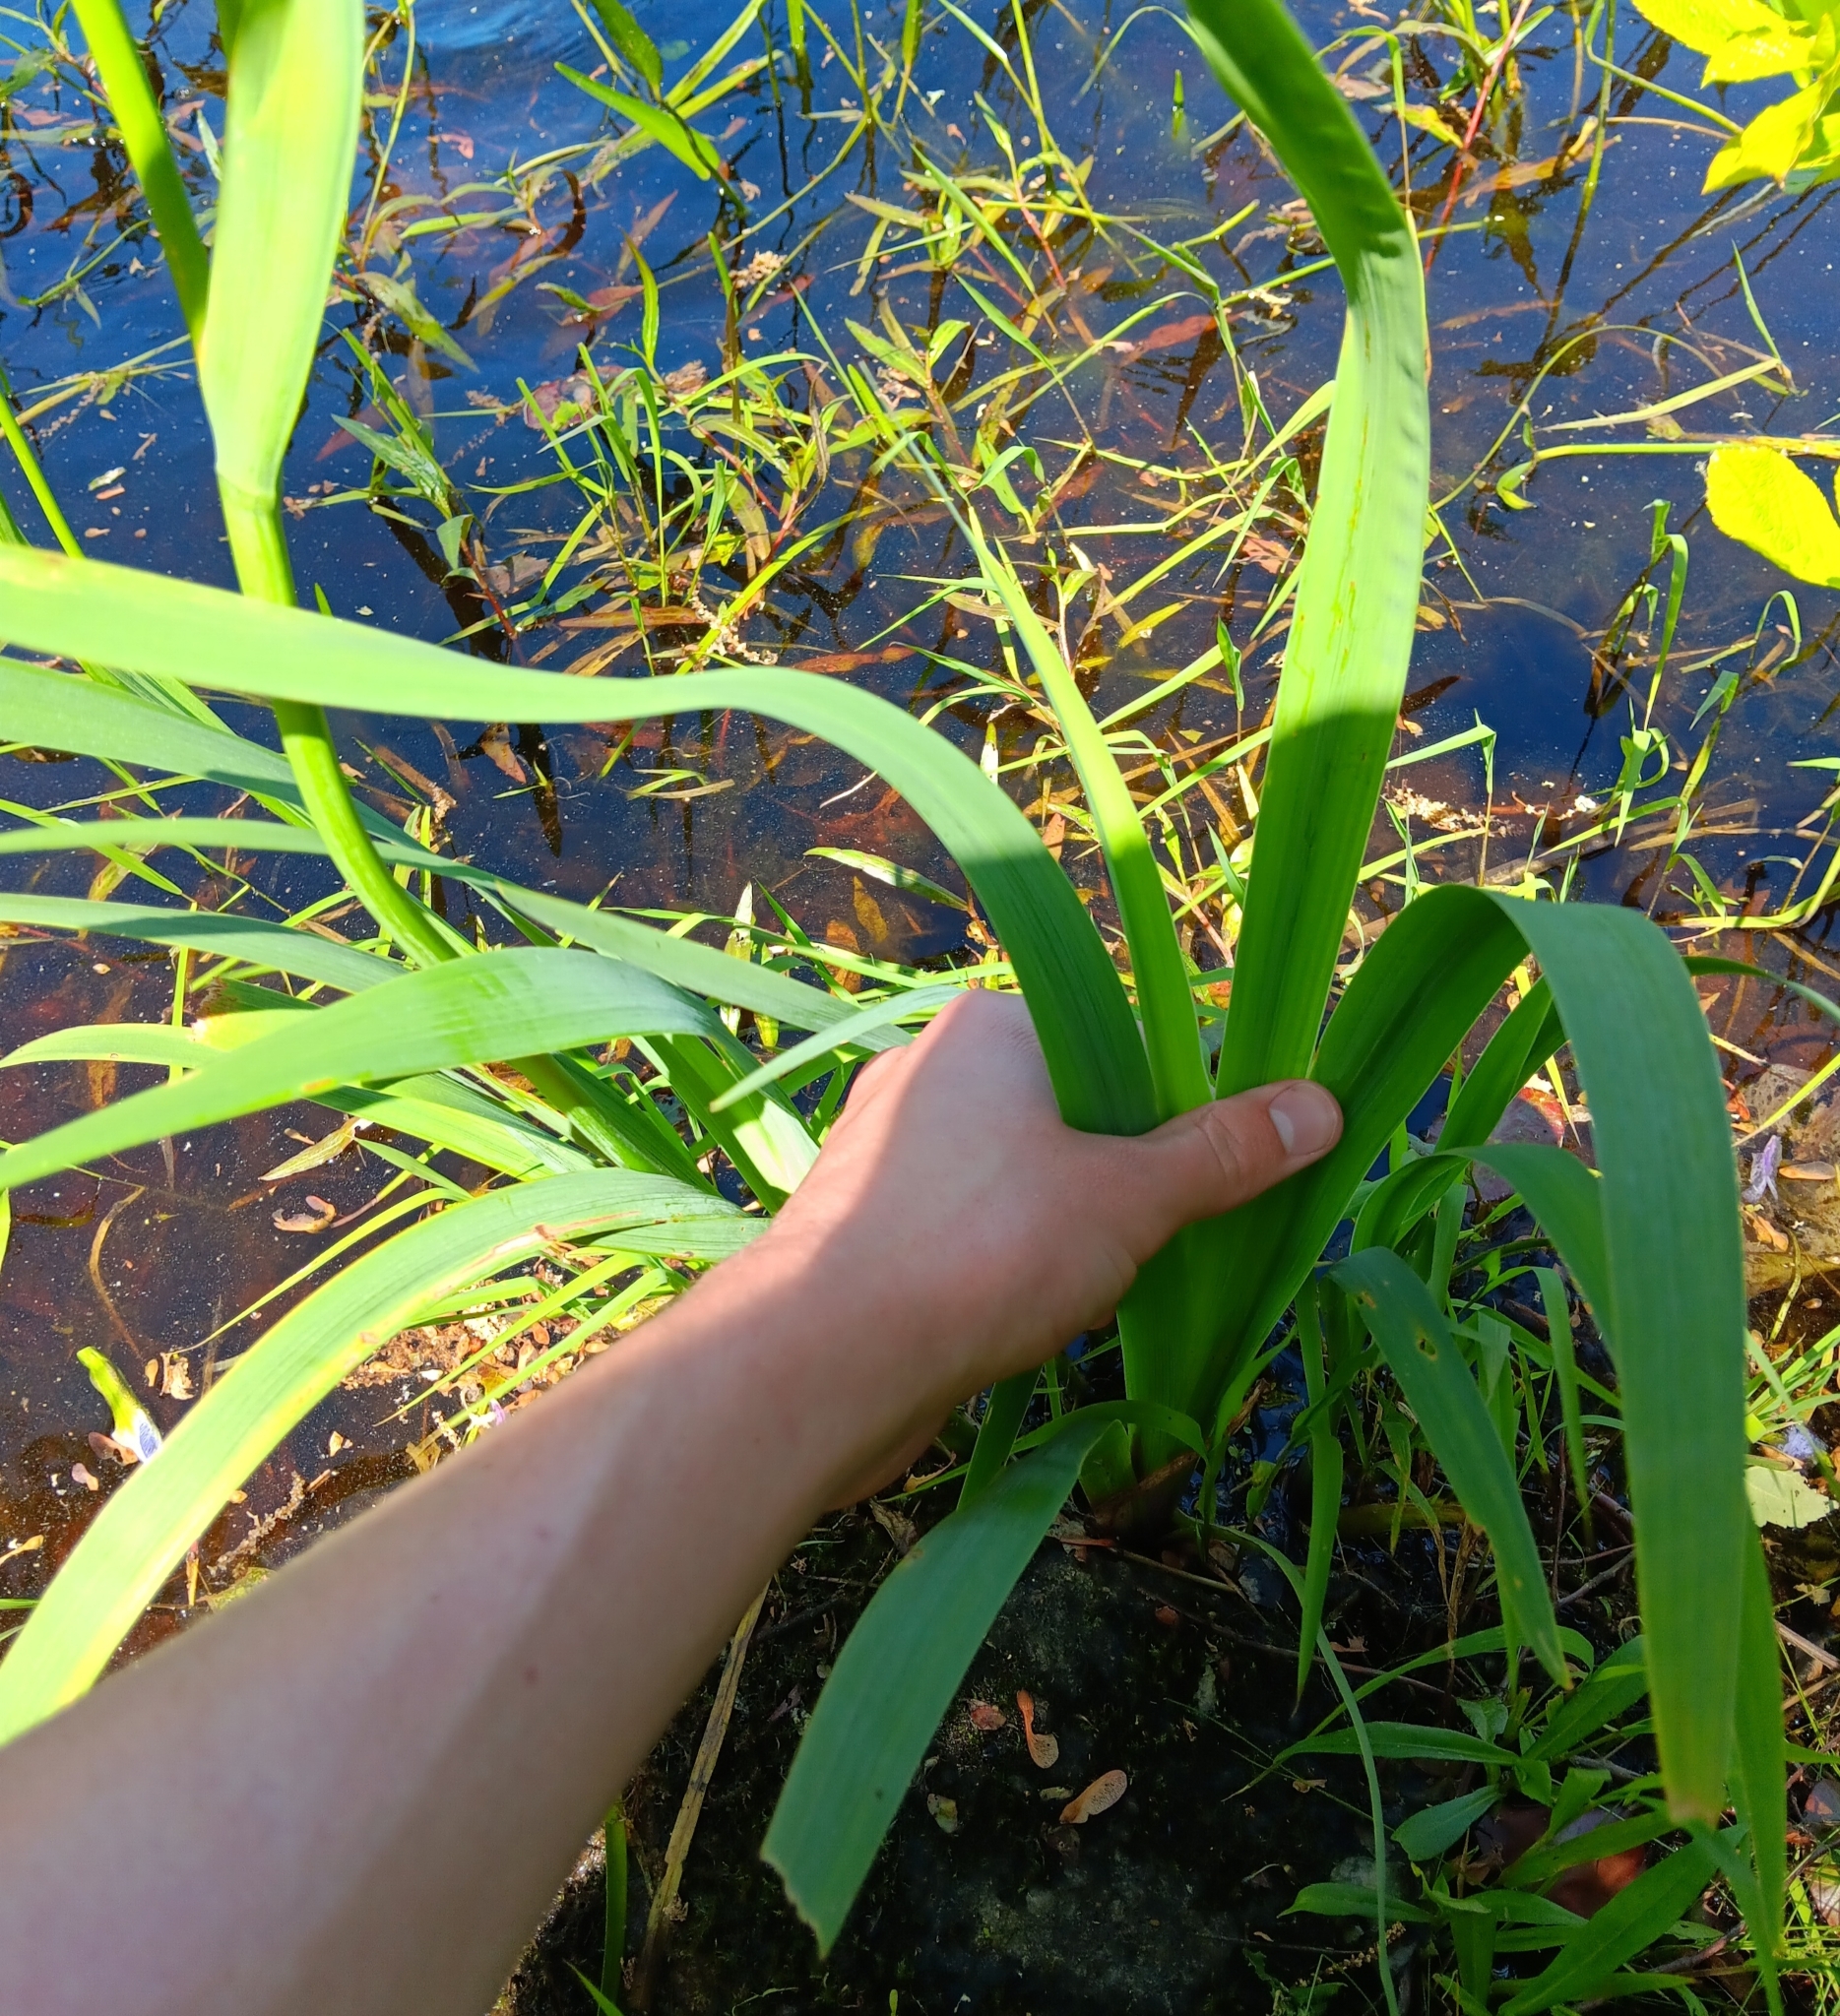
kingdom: Plantae
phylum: Tracheophyta
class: Liliopsida
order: Asparagales
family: Iridaceae
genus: Iris
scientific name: Iris versicolor
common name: Purple iris
